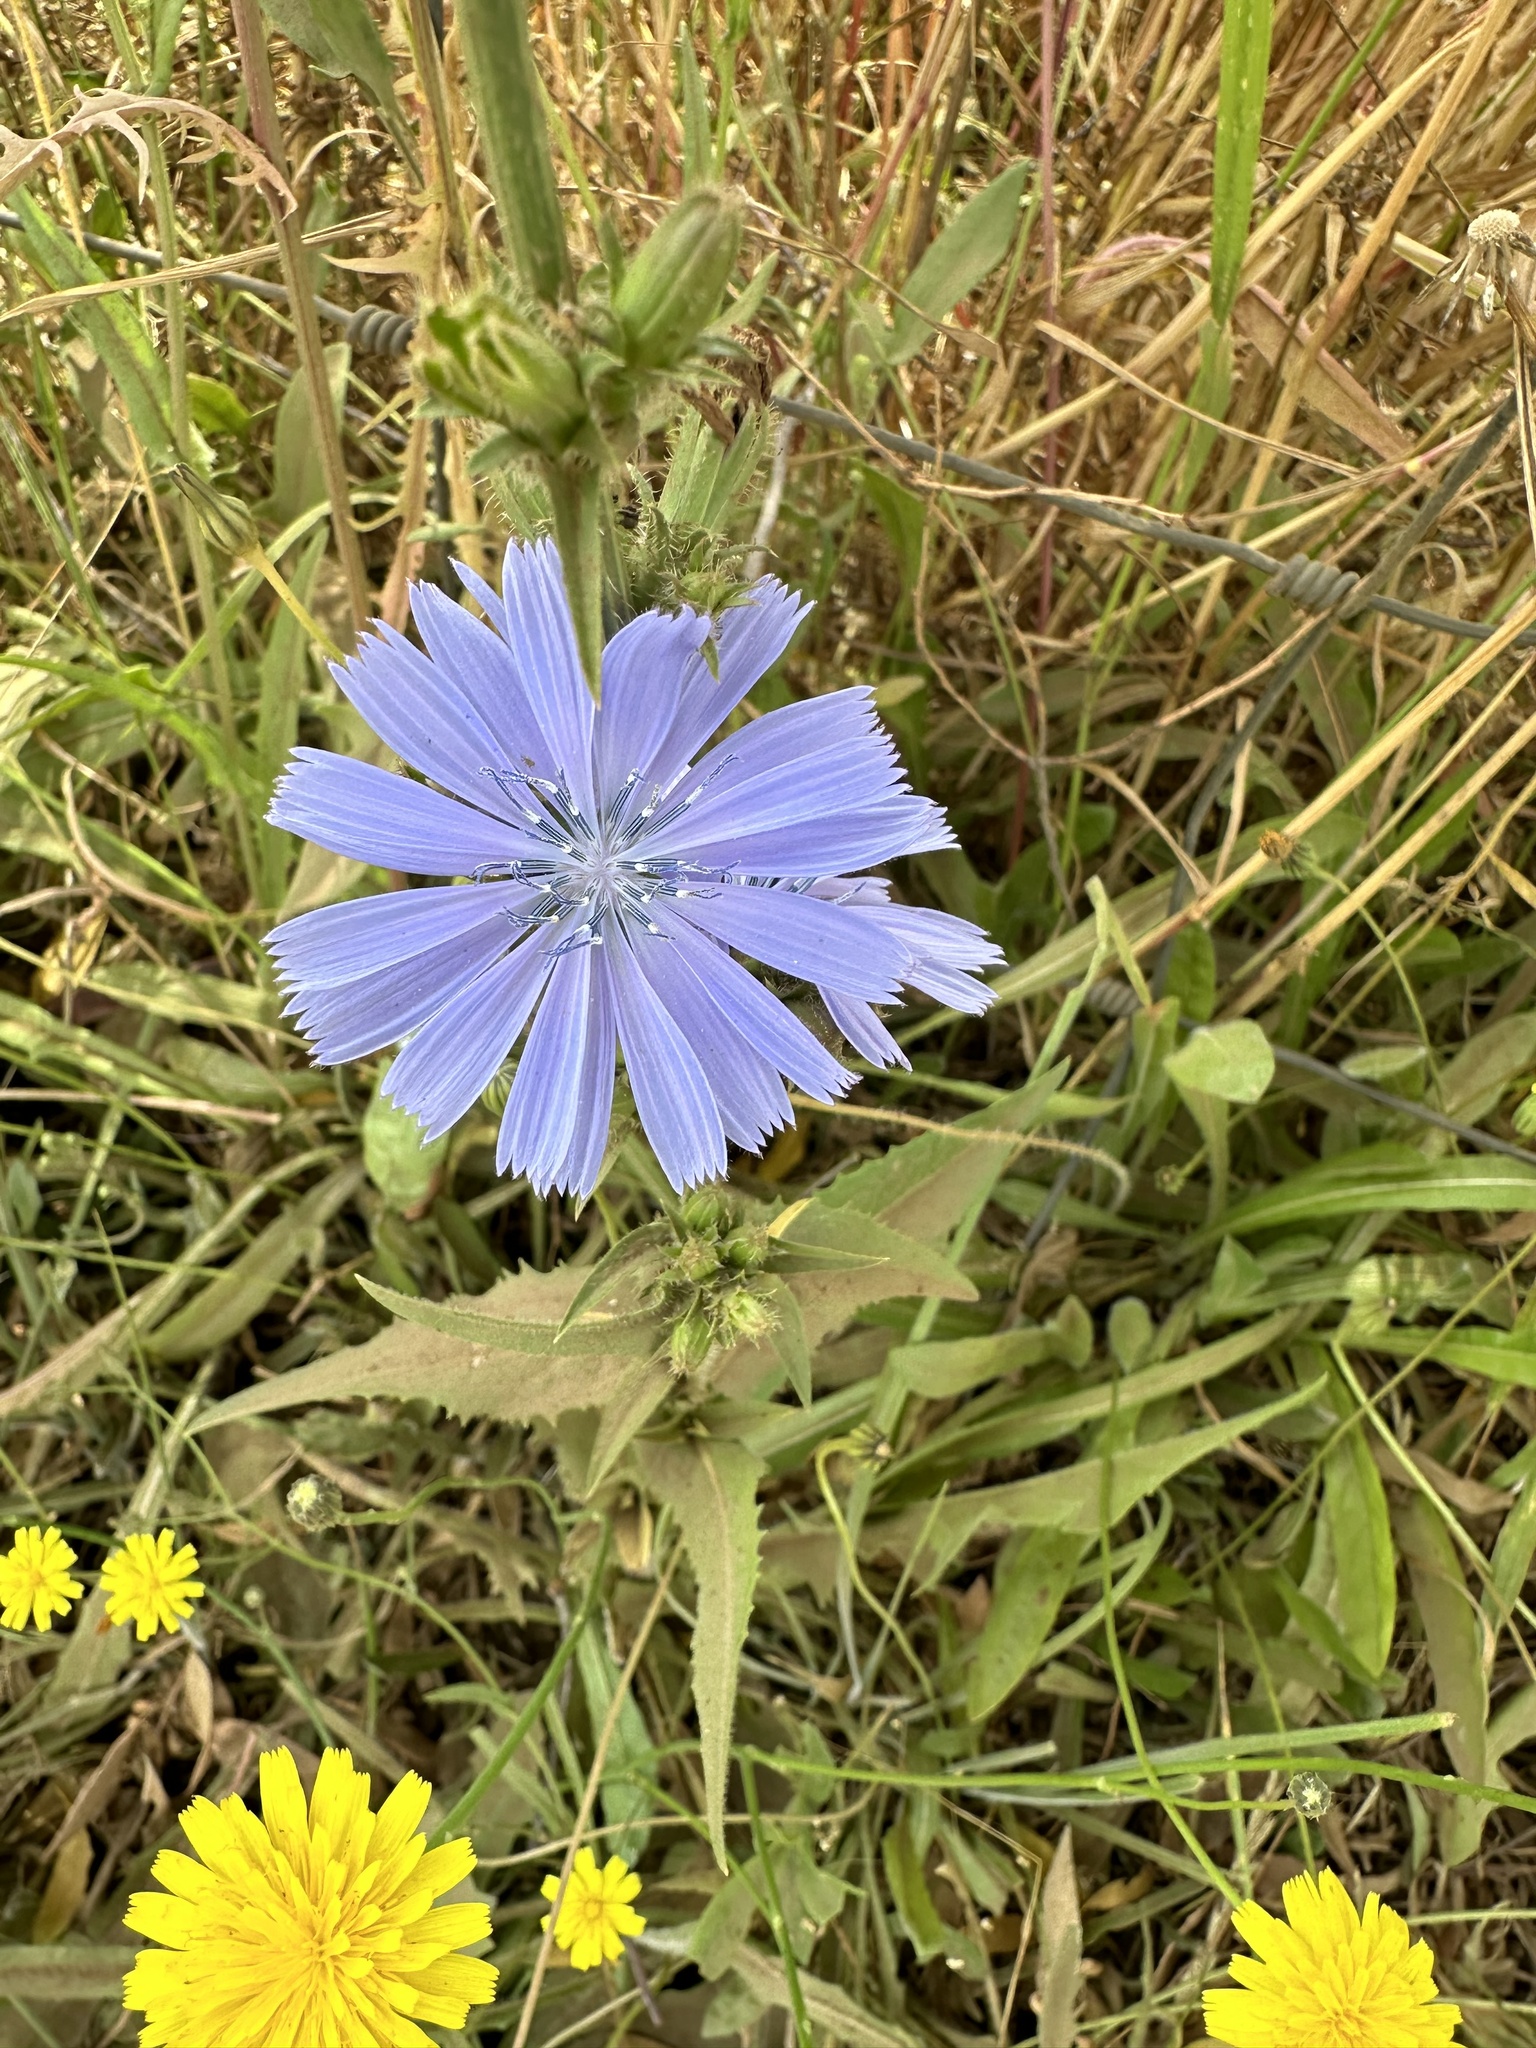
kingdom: Plantae
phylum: Tracheophyta
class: Magnoliopsida
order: Asterales
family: Asteraceae
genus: Cichorium
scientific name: Cichorium intybus
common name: Chicory
